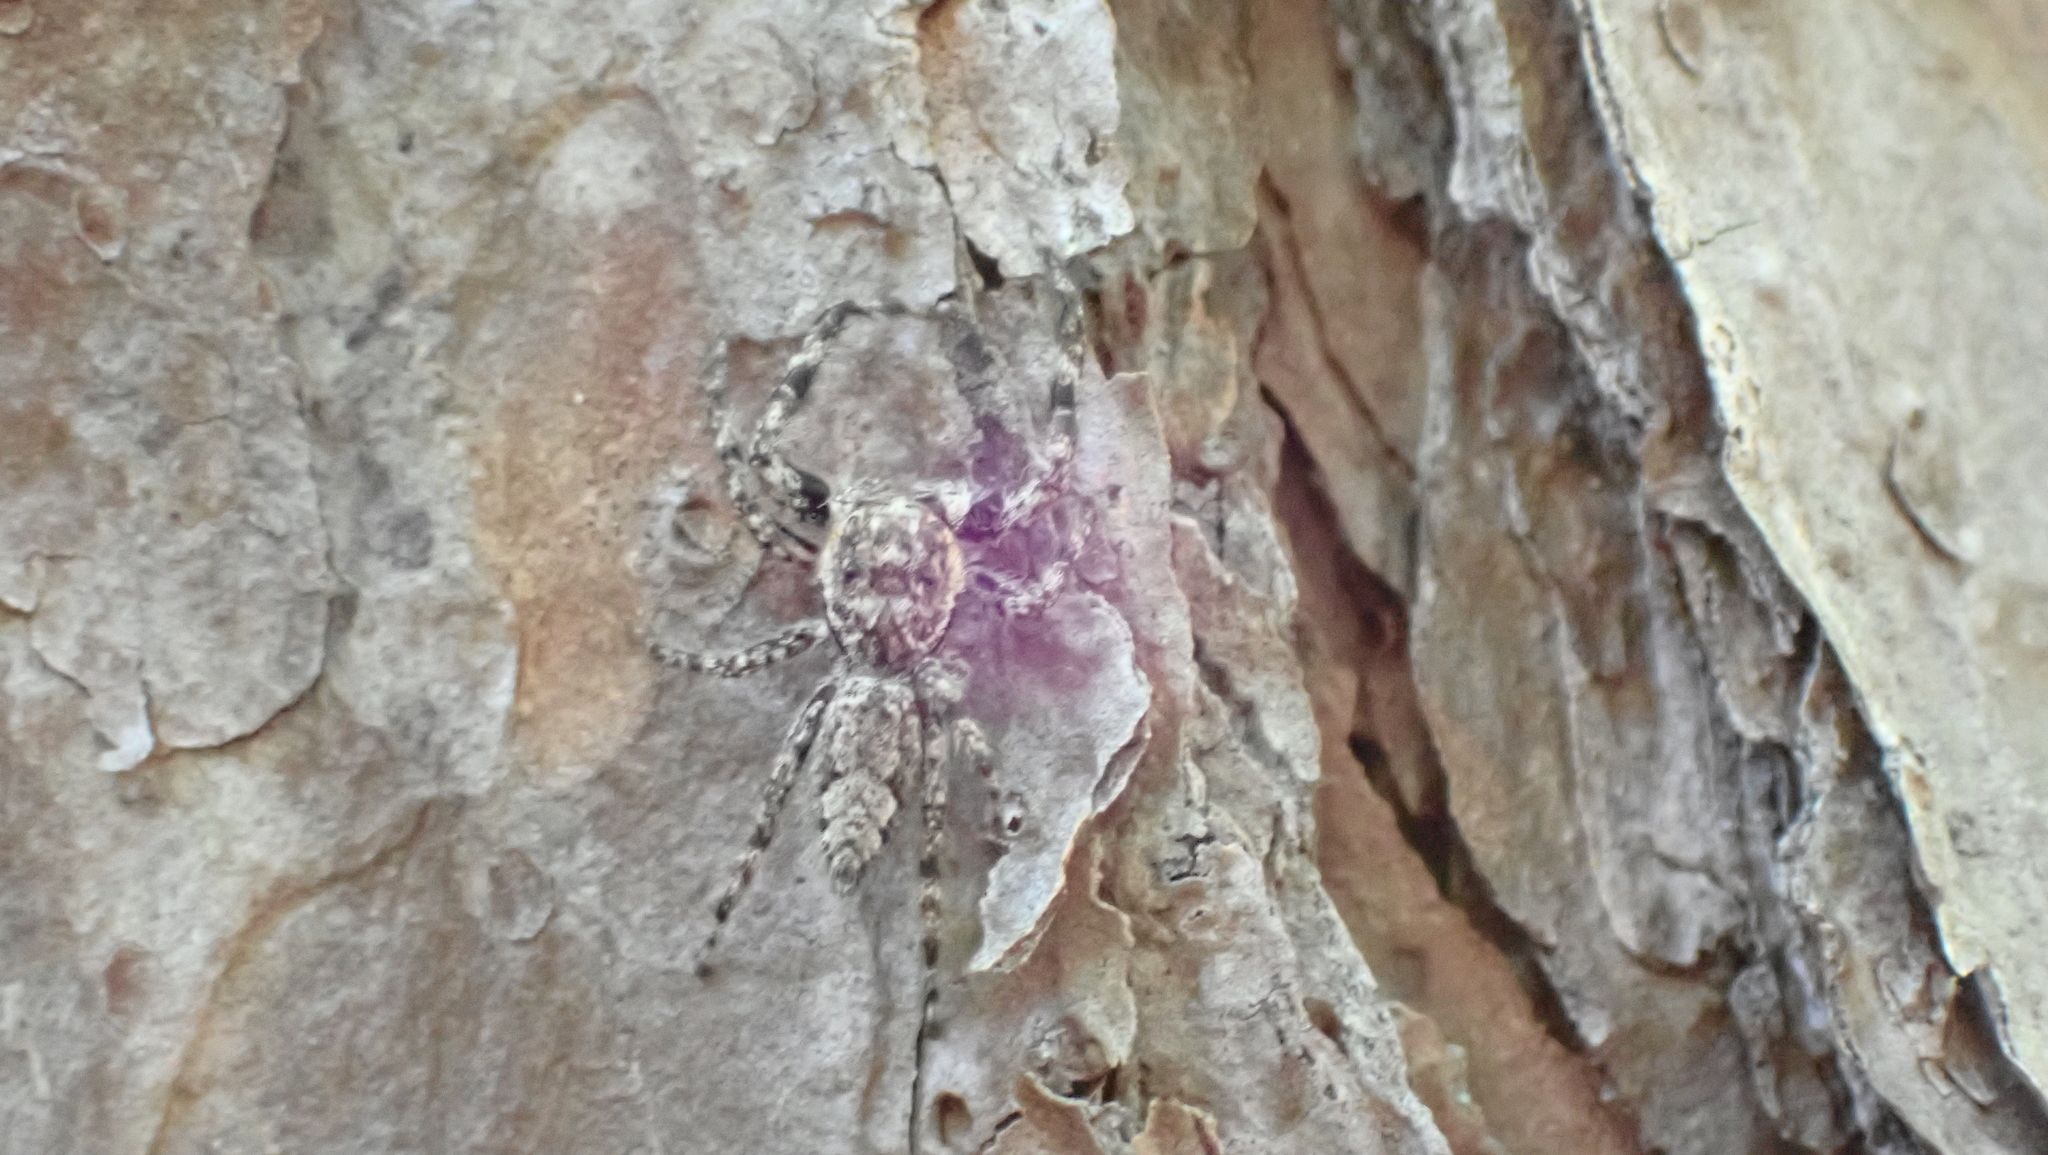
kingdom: Animalia
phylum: Arthropoda
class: Arachnida
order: Araneae
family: Salticidae
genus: Platycryptus
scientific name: Platycryptus undatus
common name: Tan jumping spider
